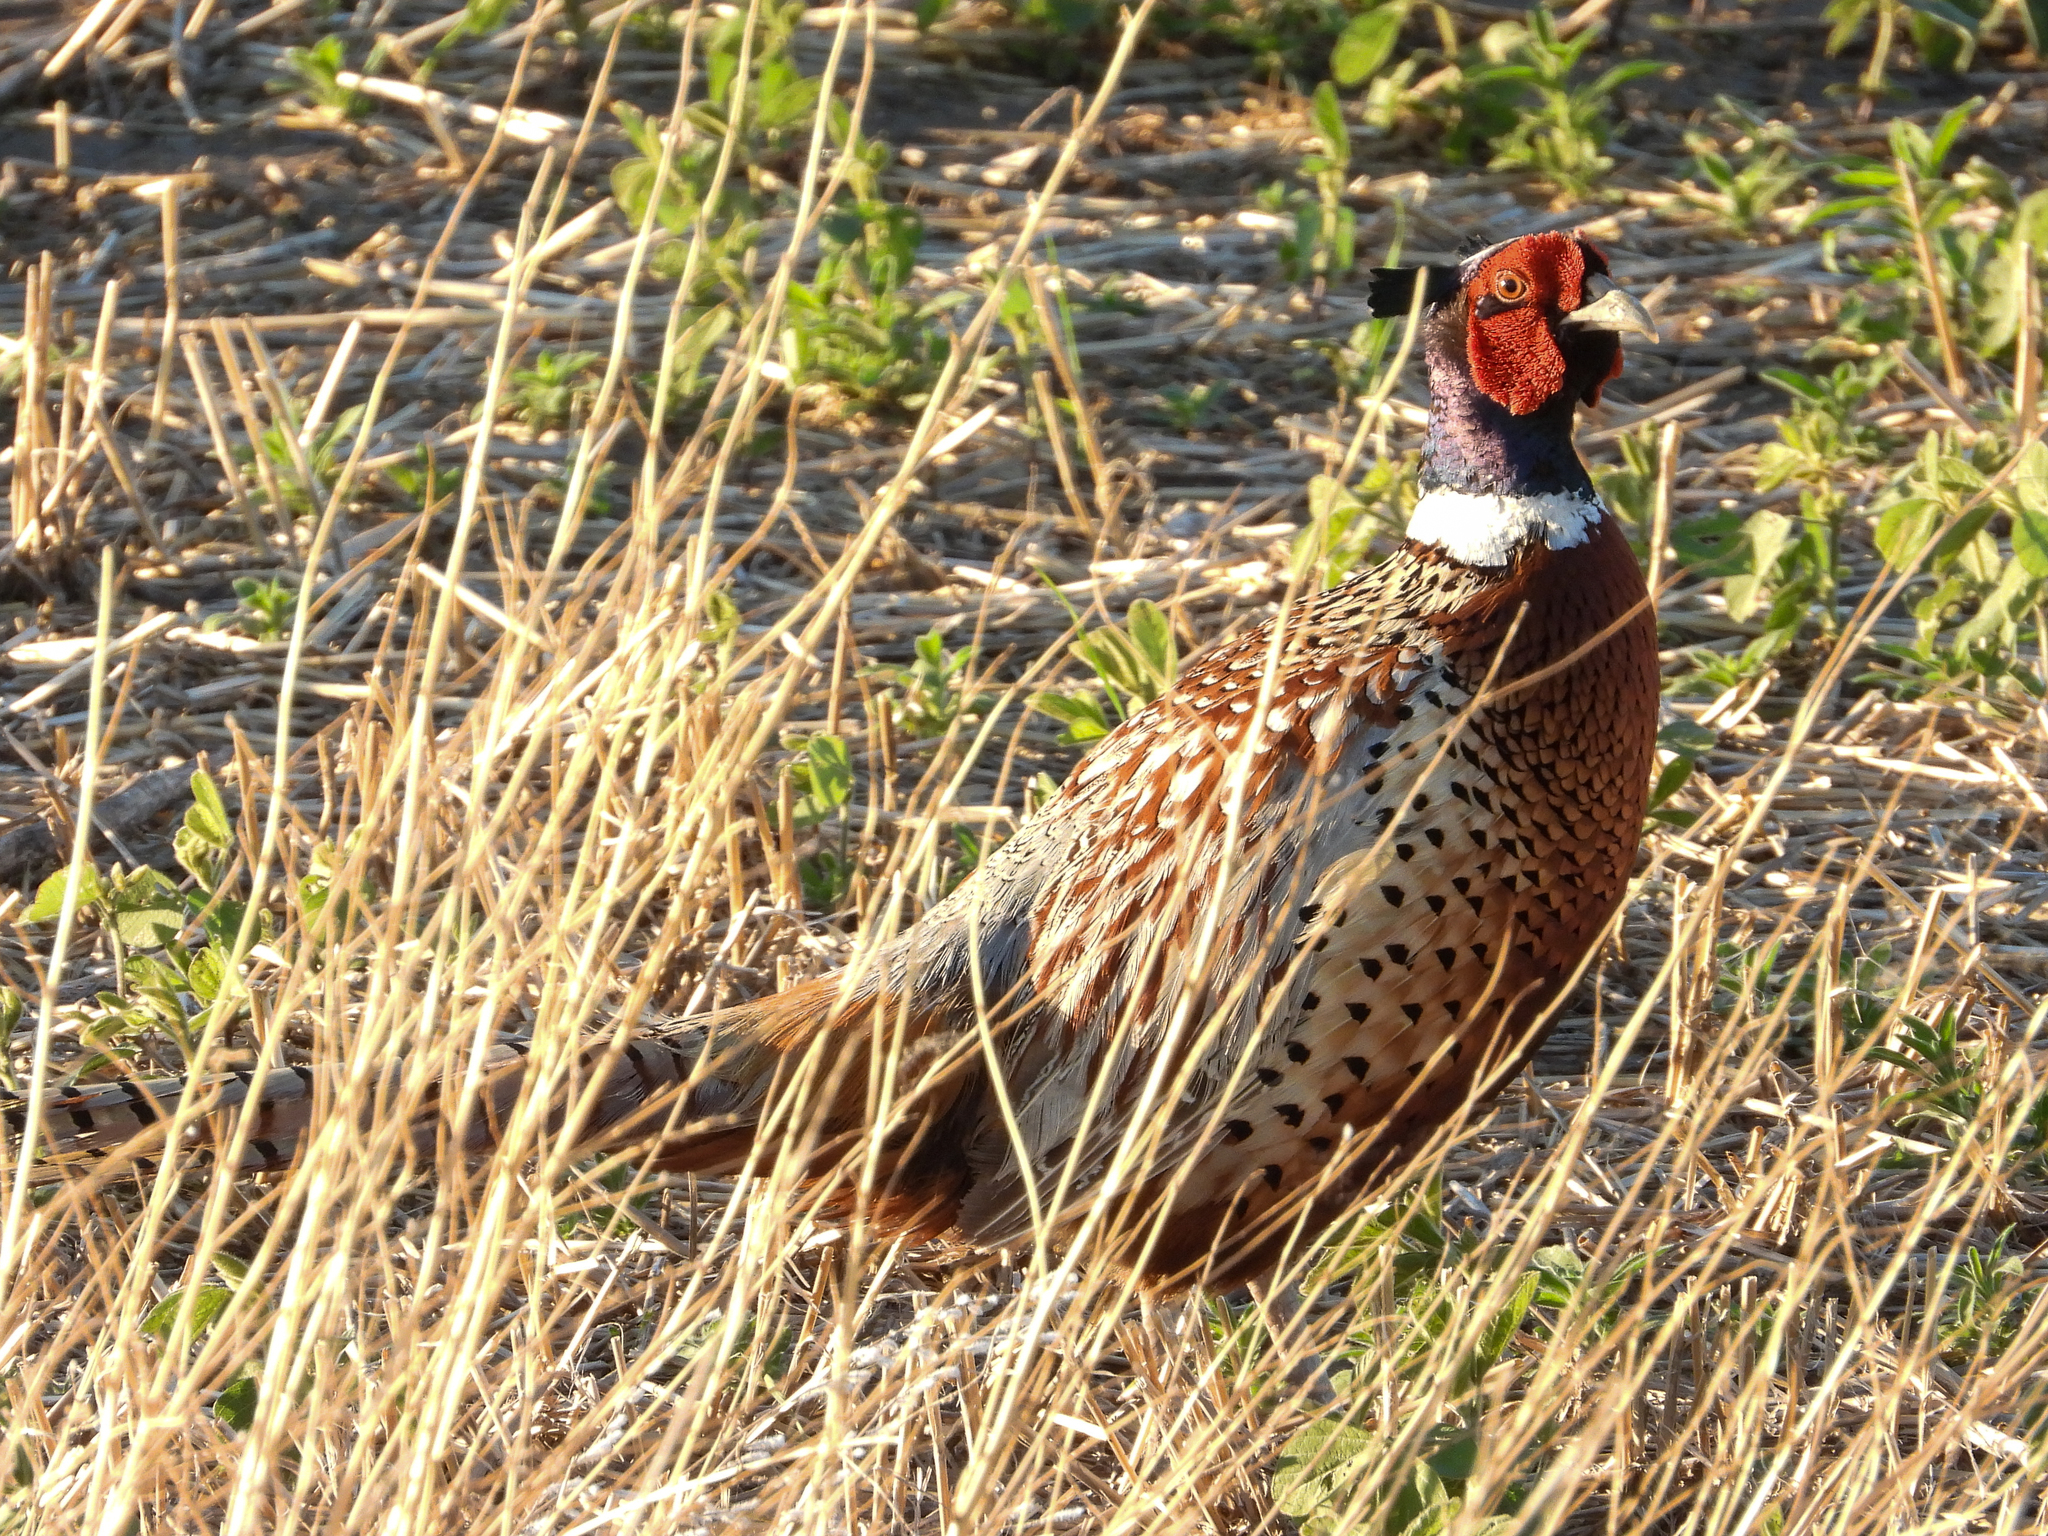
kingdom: Animalia
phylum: Chordata
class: Aves
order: Galliformes
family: Phasianidae
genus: Phasianus
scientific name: Phasianus colchicus
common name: Common pheasant
